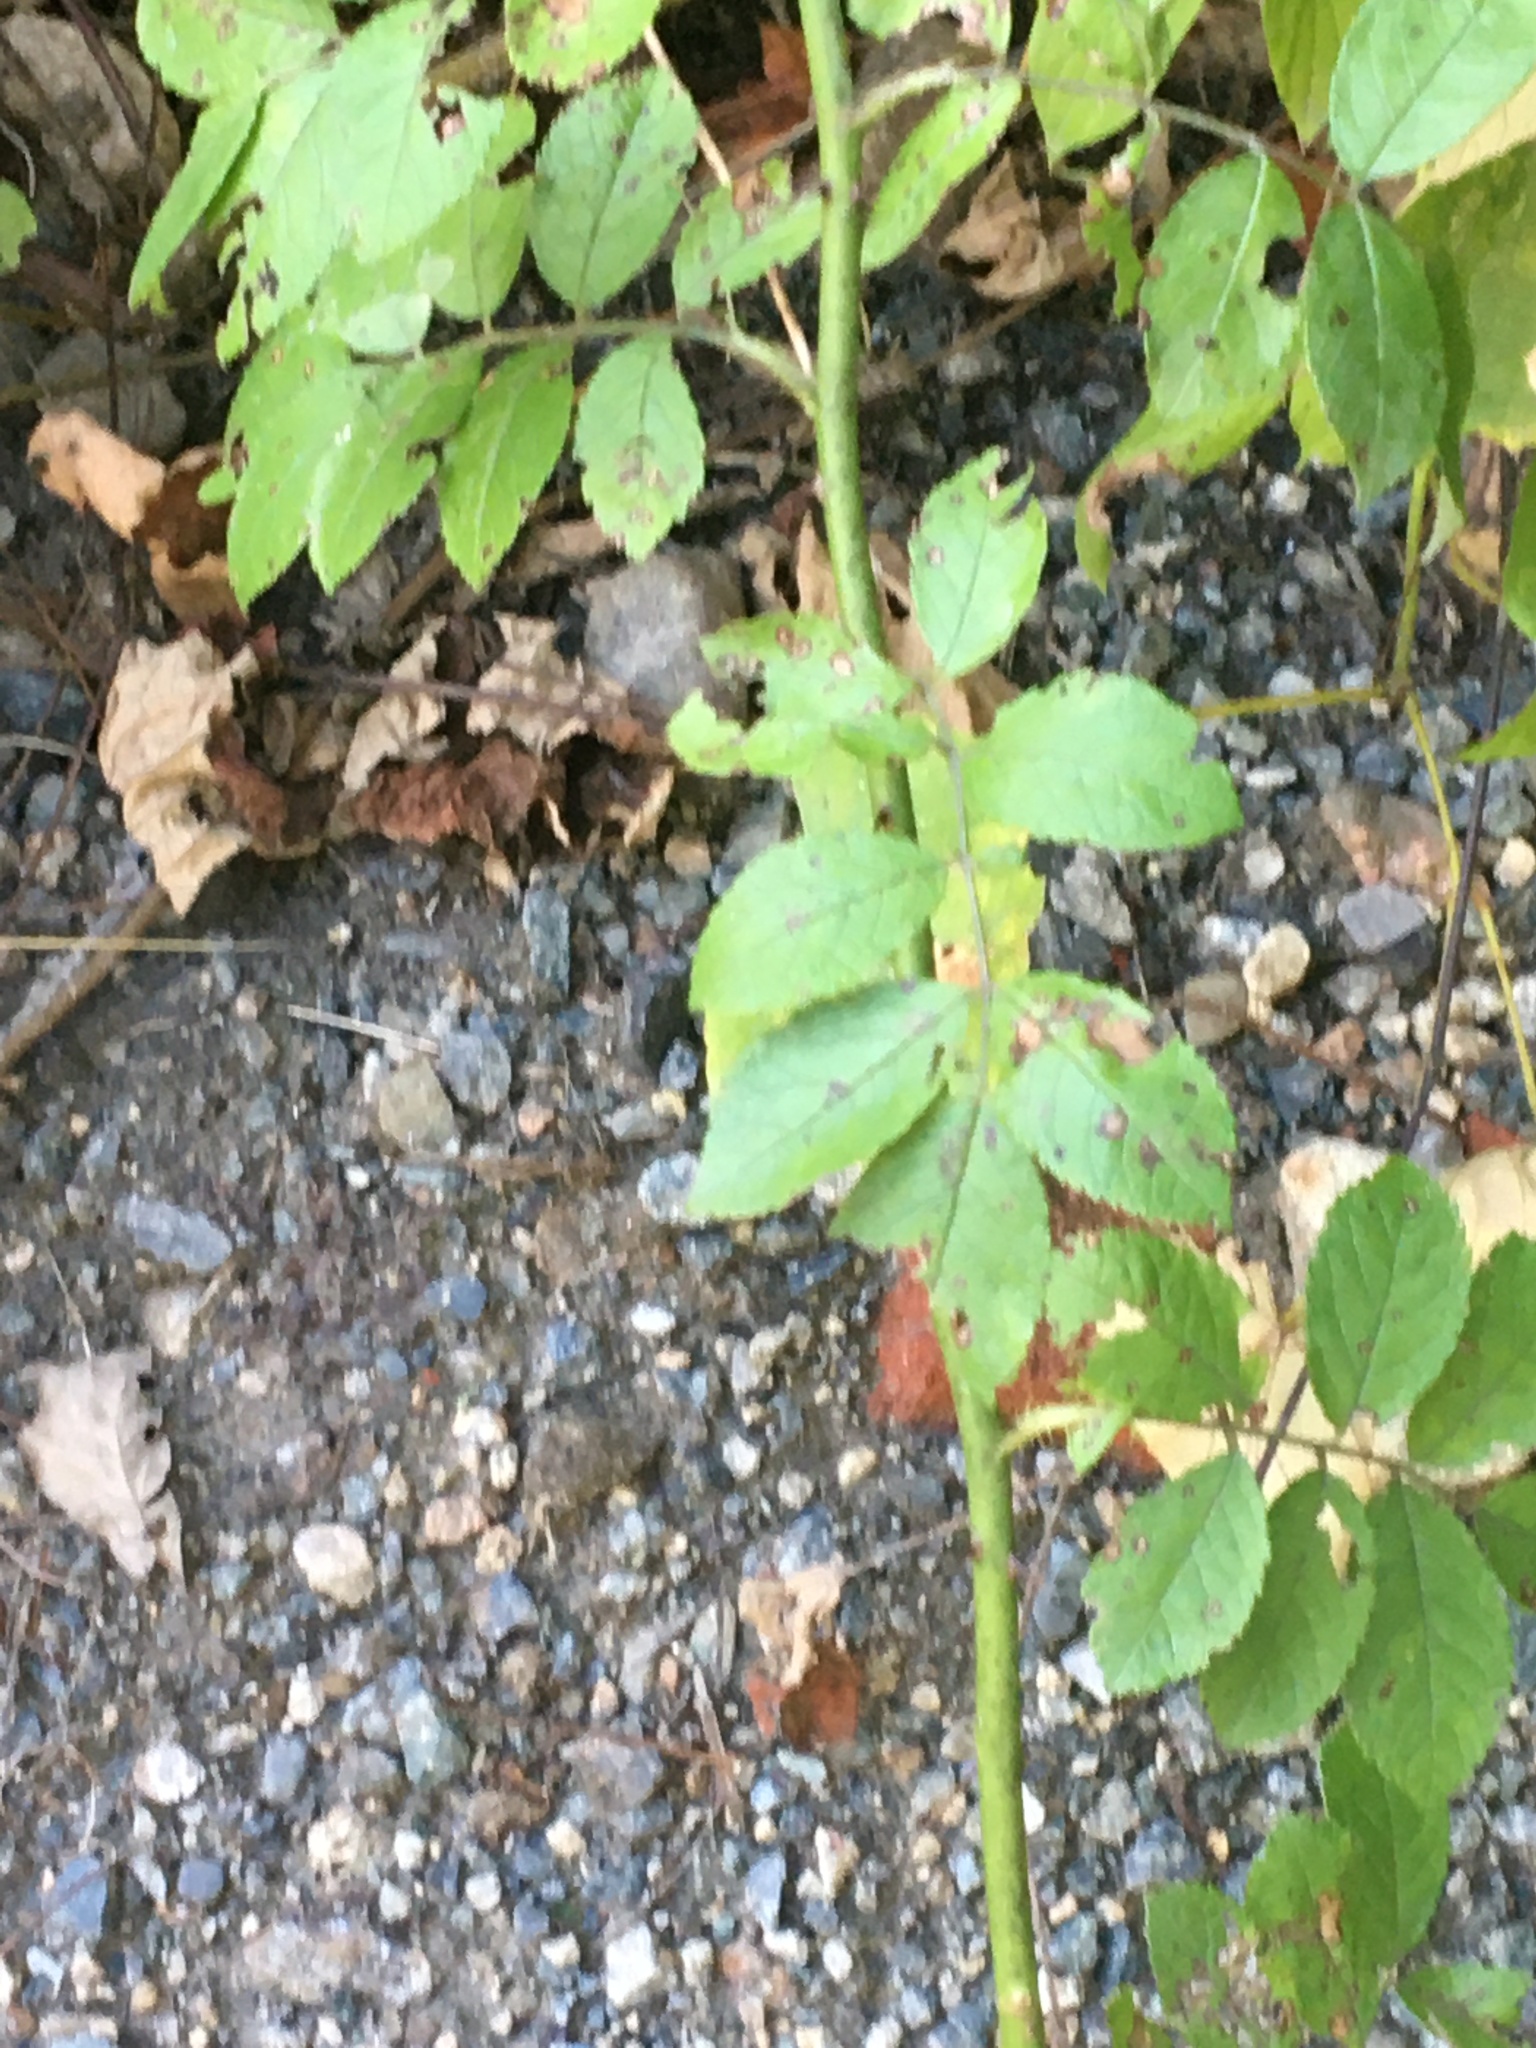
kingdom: Plantae
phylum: Tracheophyta
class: Magnoliopsida
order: Rosales
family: Rosaceae
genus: Rosa
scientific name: Rosa multiflora
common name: Multiflora rose
